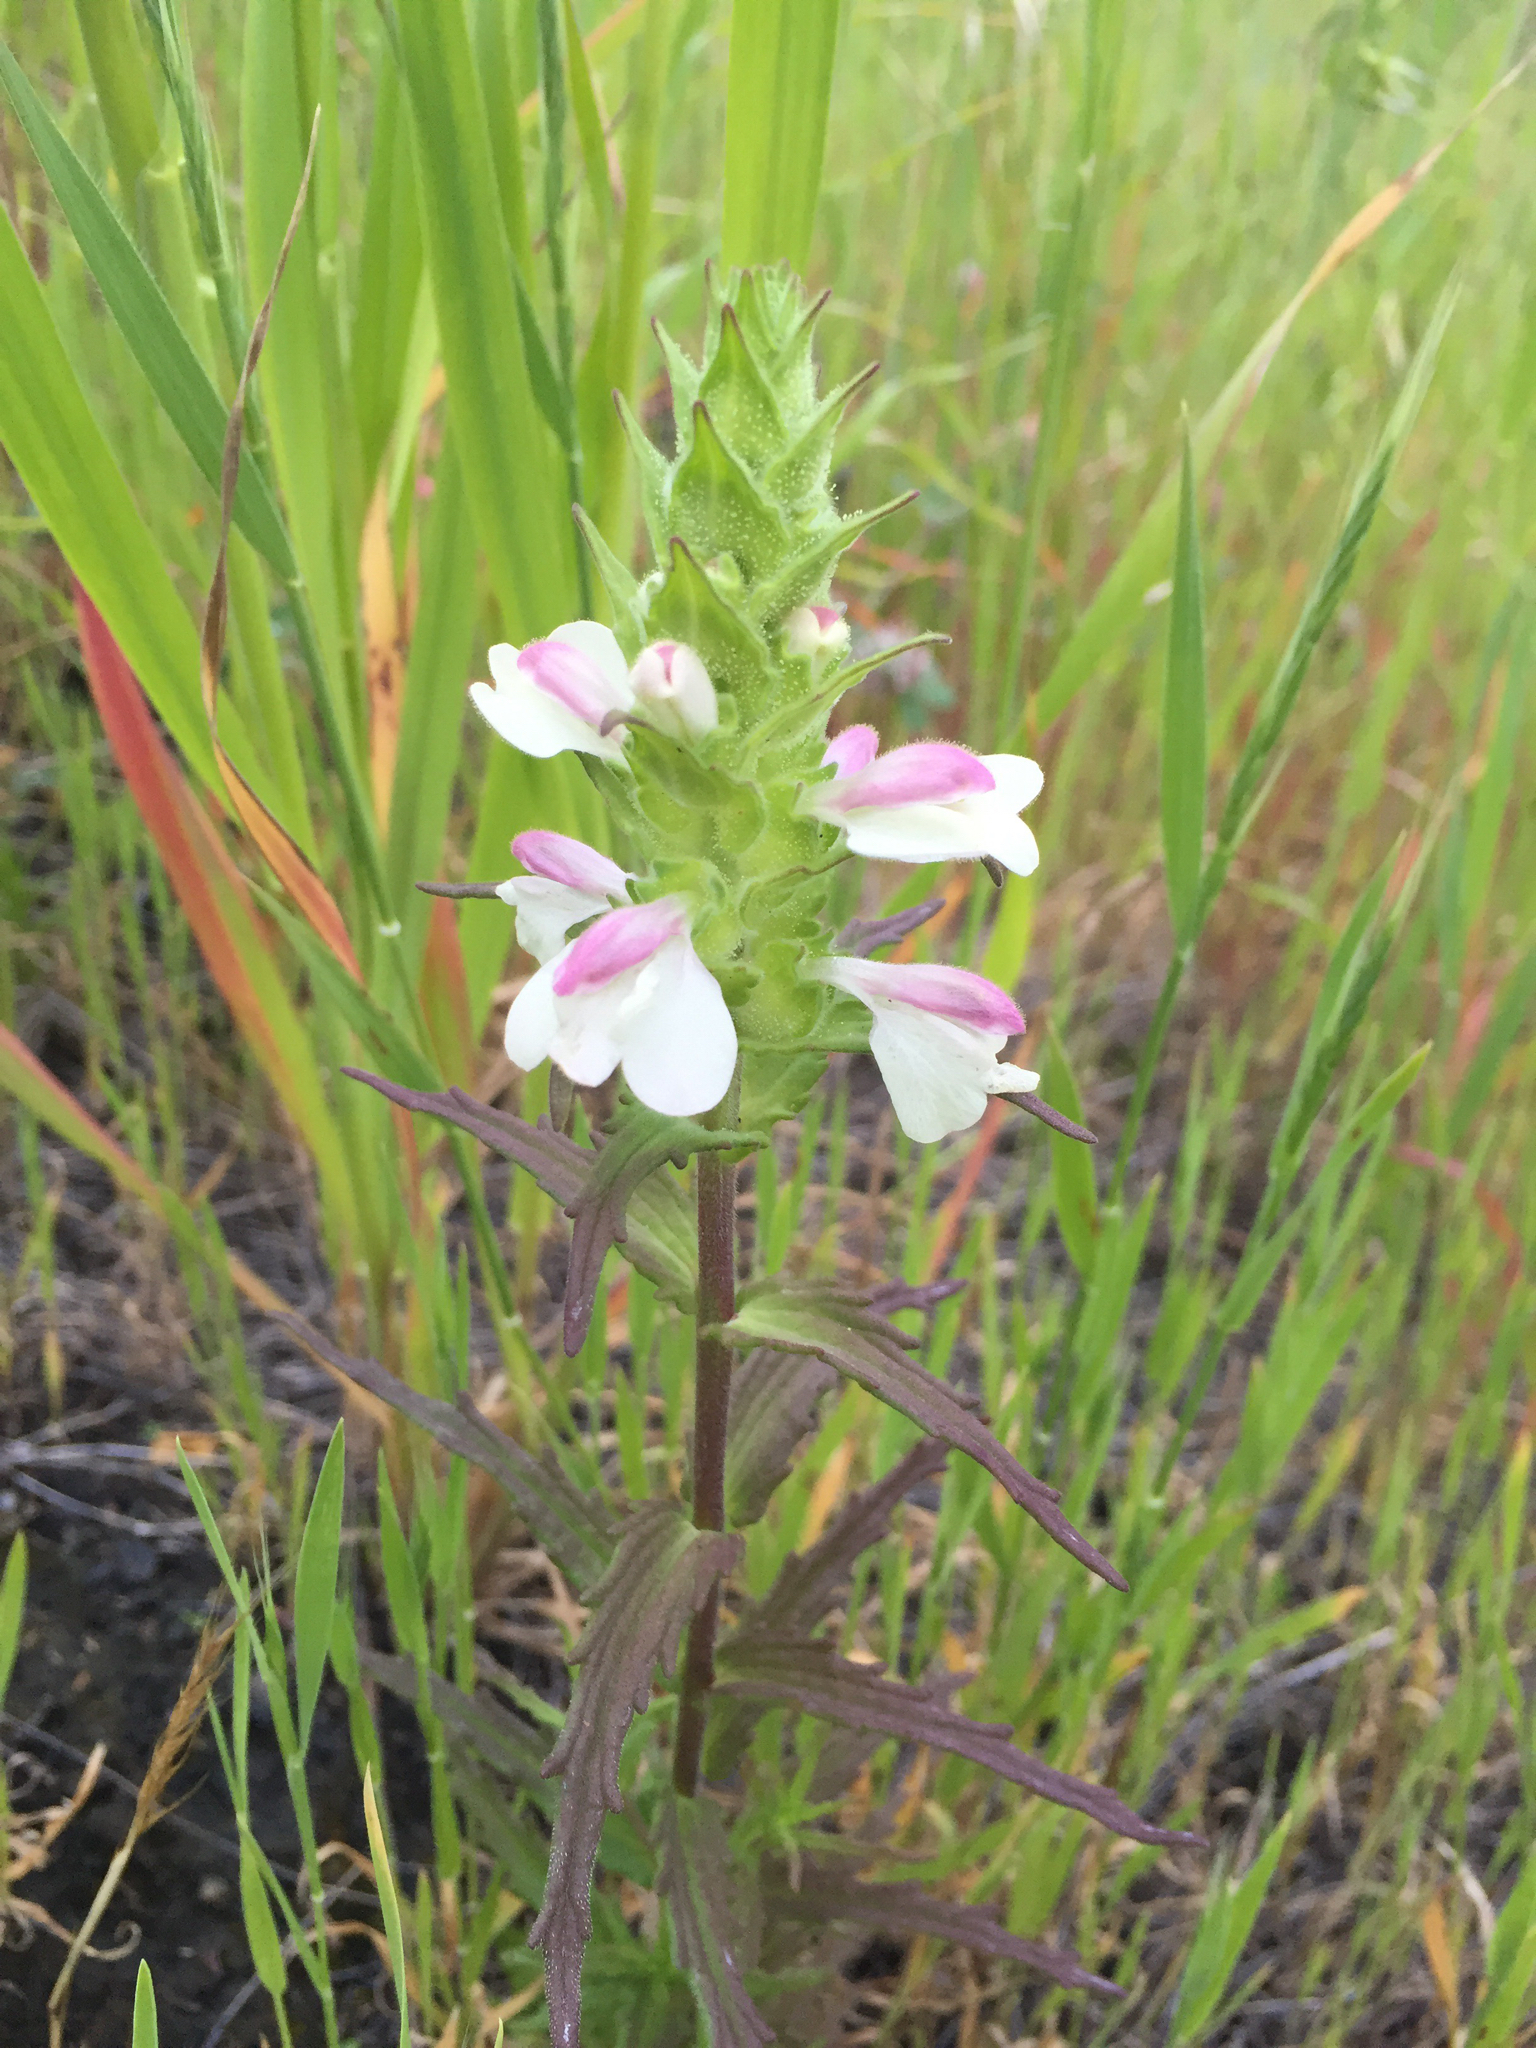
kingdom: Plantae
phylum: Tracheophyta
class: Magnoliopsida
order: Lamiales
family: Orobanchaceae
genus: Bellardia
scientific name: Bellardia trixago
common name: Mediterranean lineseed
